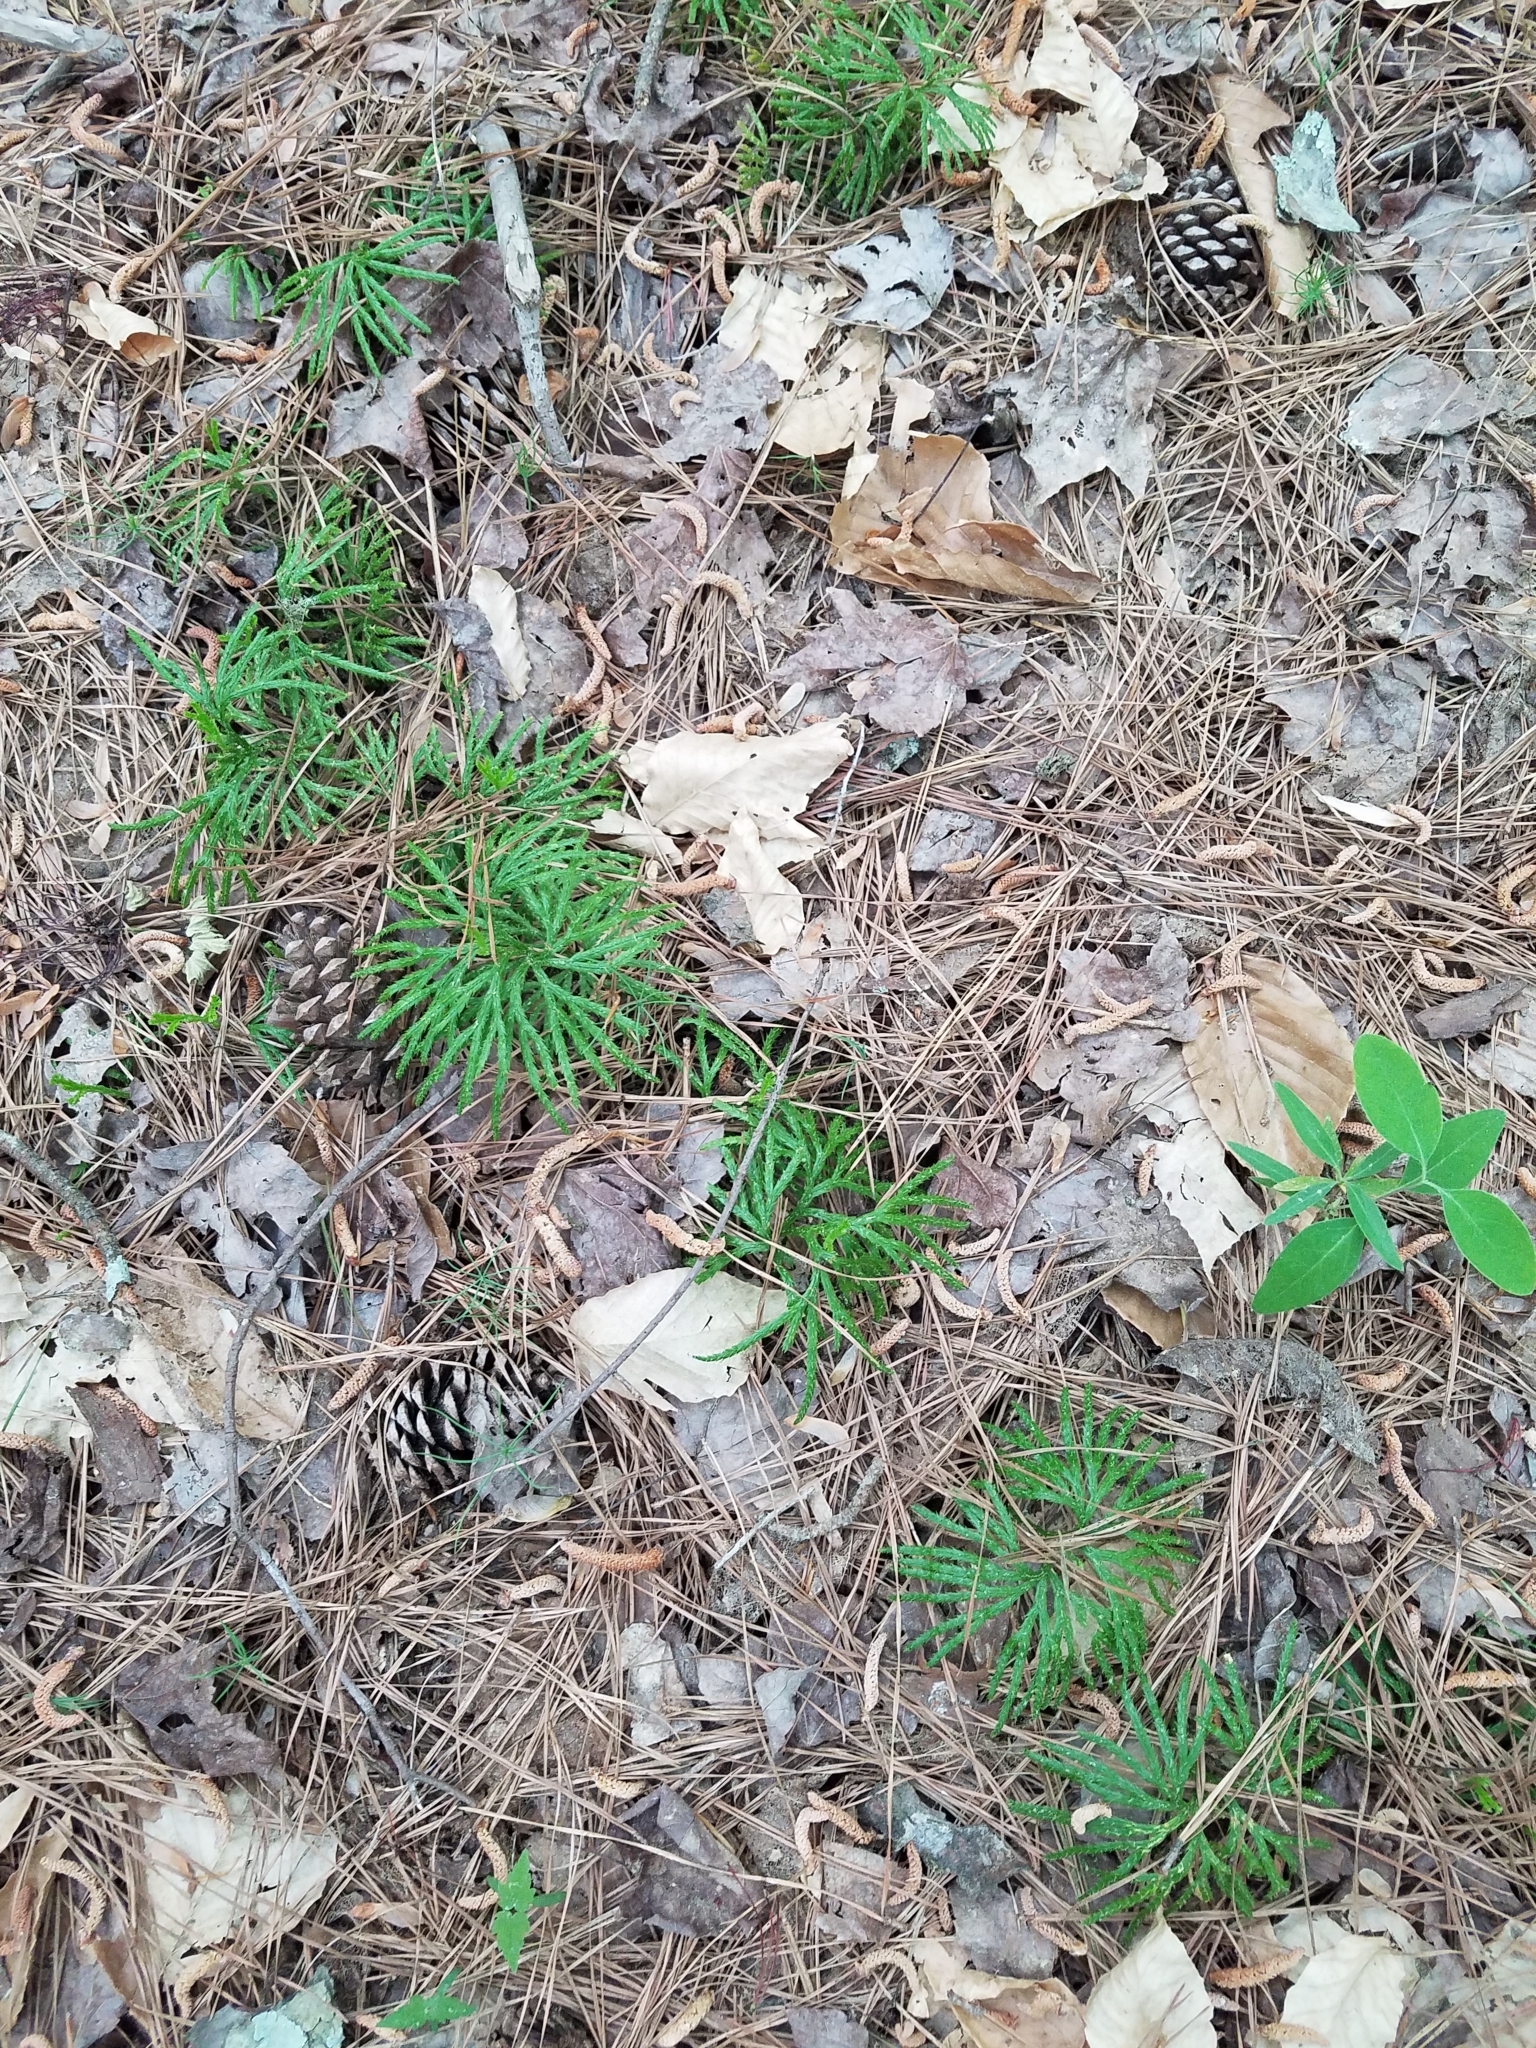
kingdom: Plantae
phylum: Tracheophyta
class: Lycopodiopsida
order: Lycopodiales
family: Lycopodiaceae
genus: Diphasiastrum
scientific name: Diphasiastrum digitatum
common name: Southern running-pine
